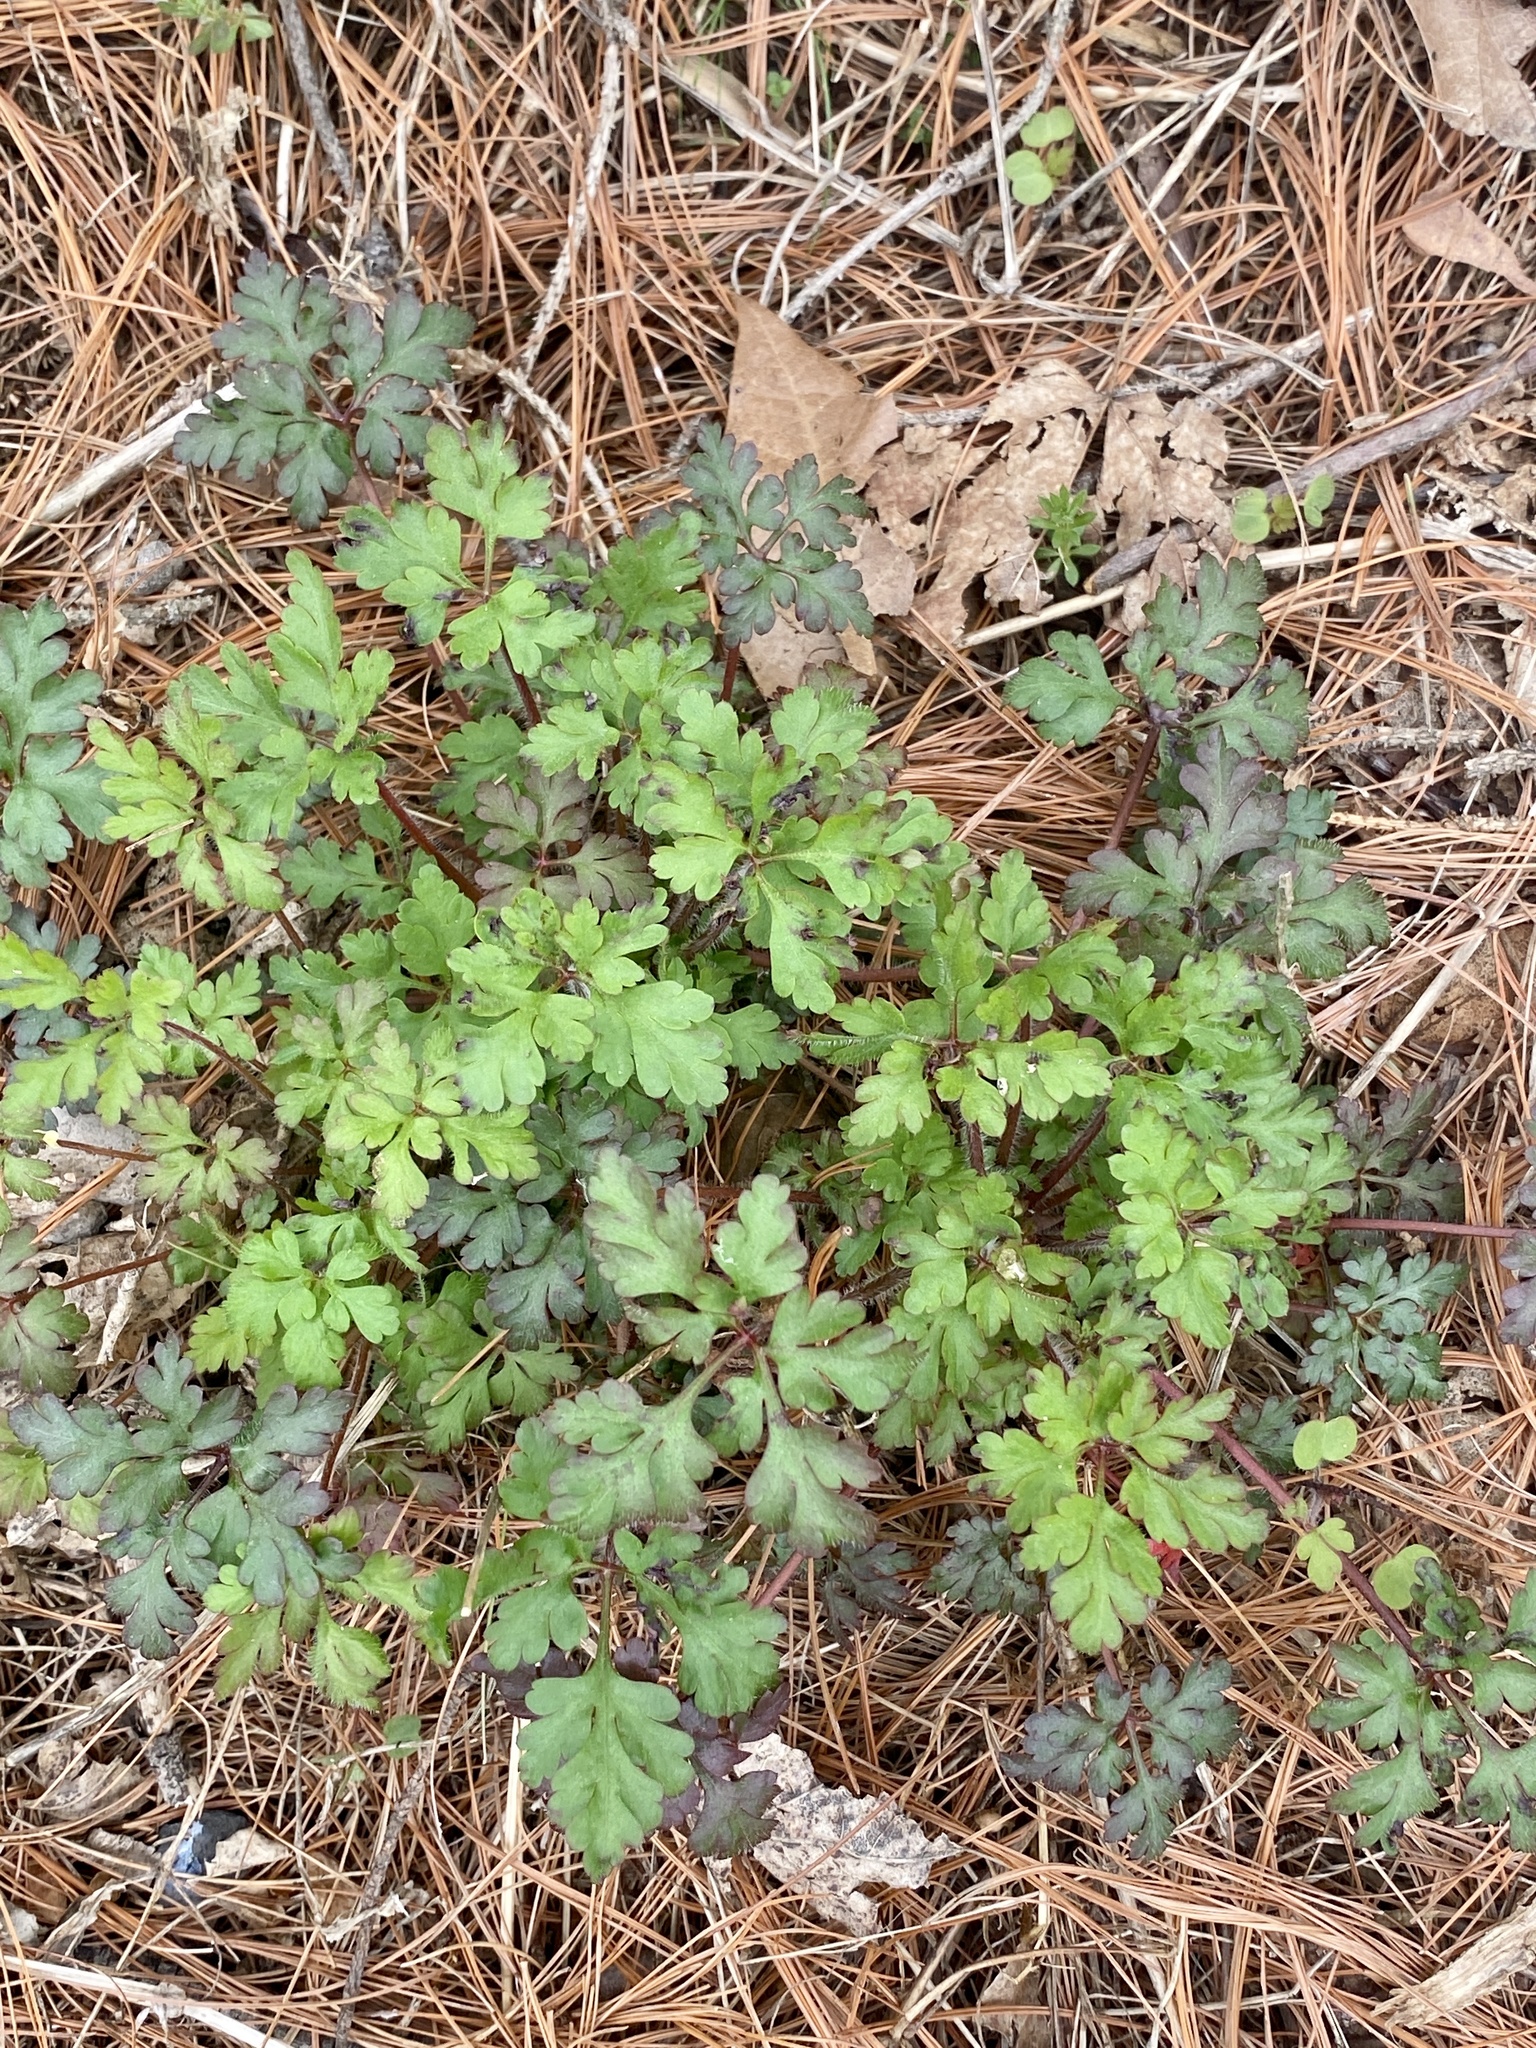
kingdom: Plantae
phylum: Tracheophyta
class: Magnoliopsida
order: Geraniales
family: Geraniaceae
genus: Geranium
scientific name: Geranium robertianum
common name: Herb-robert
